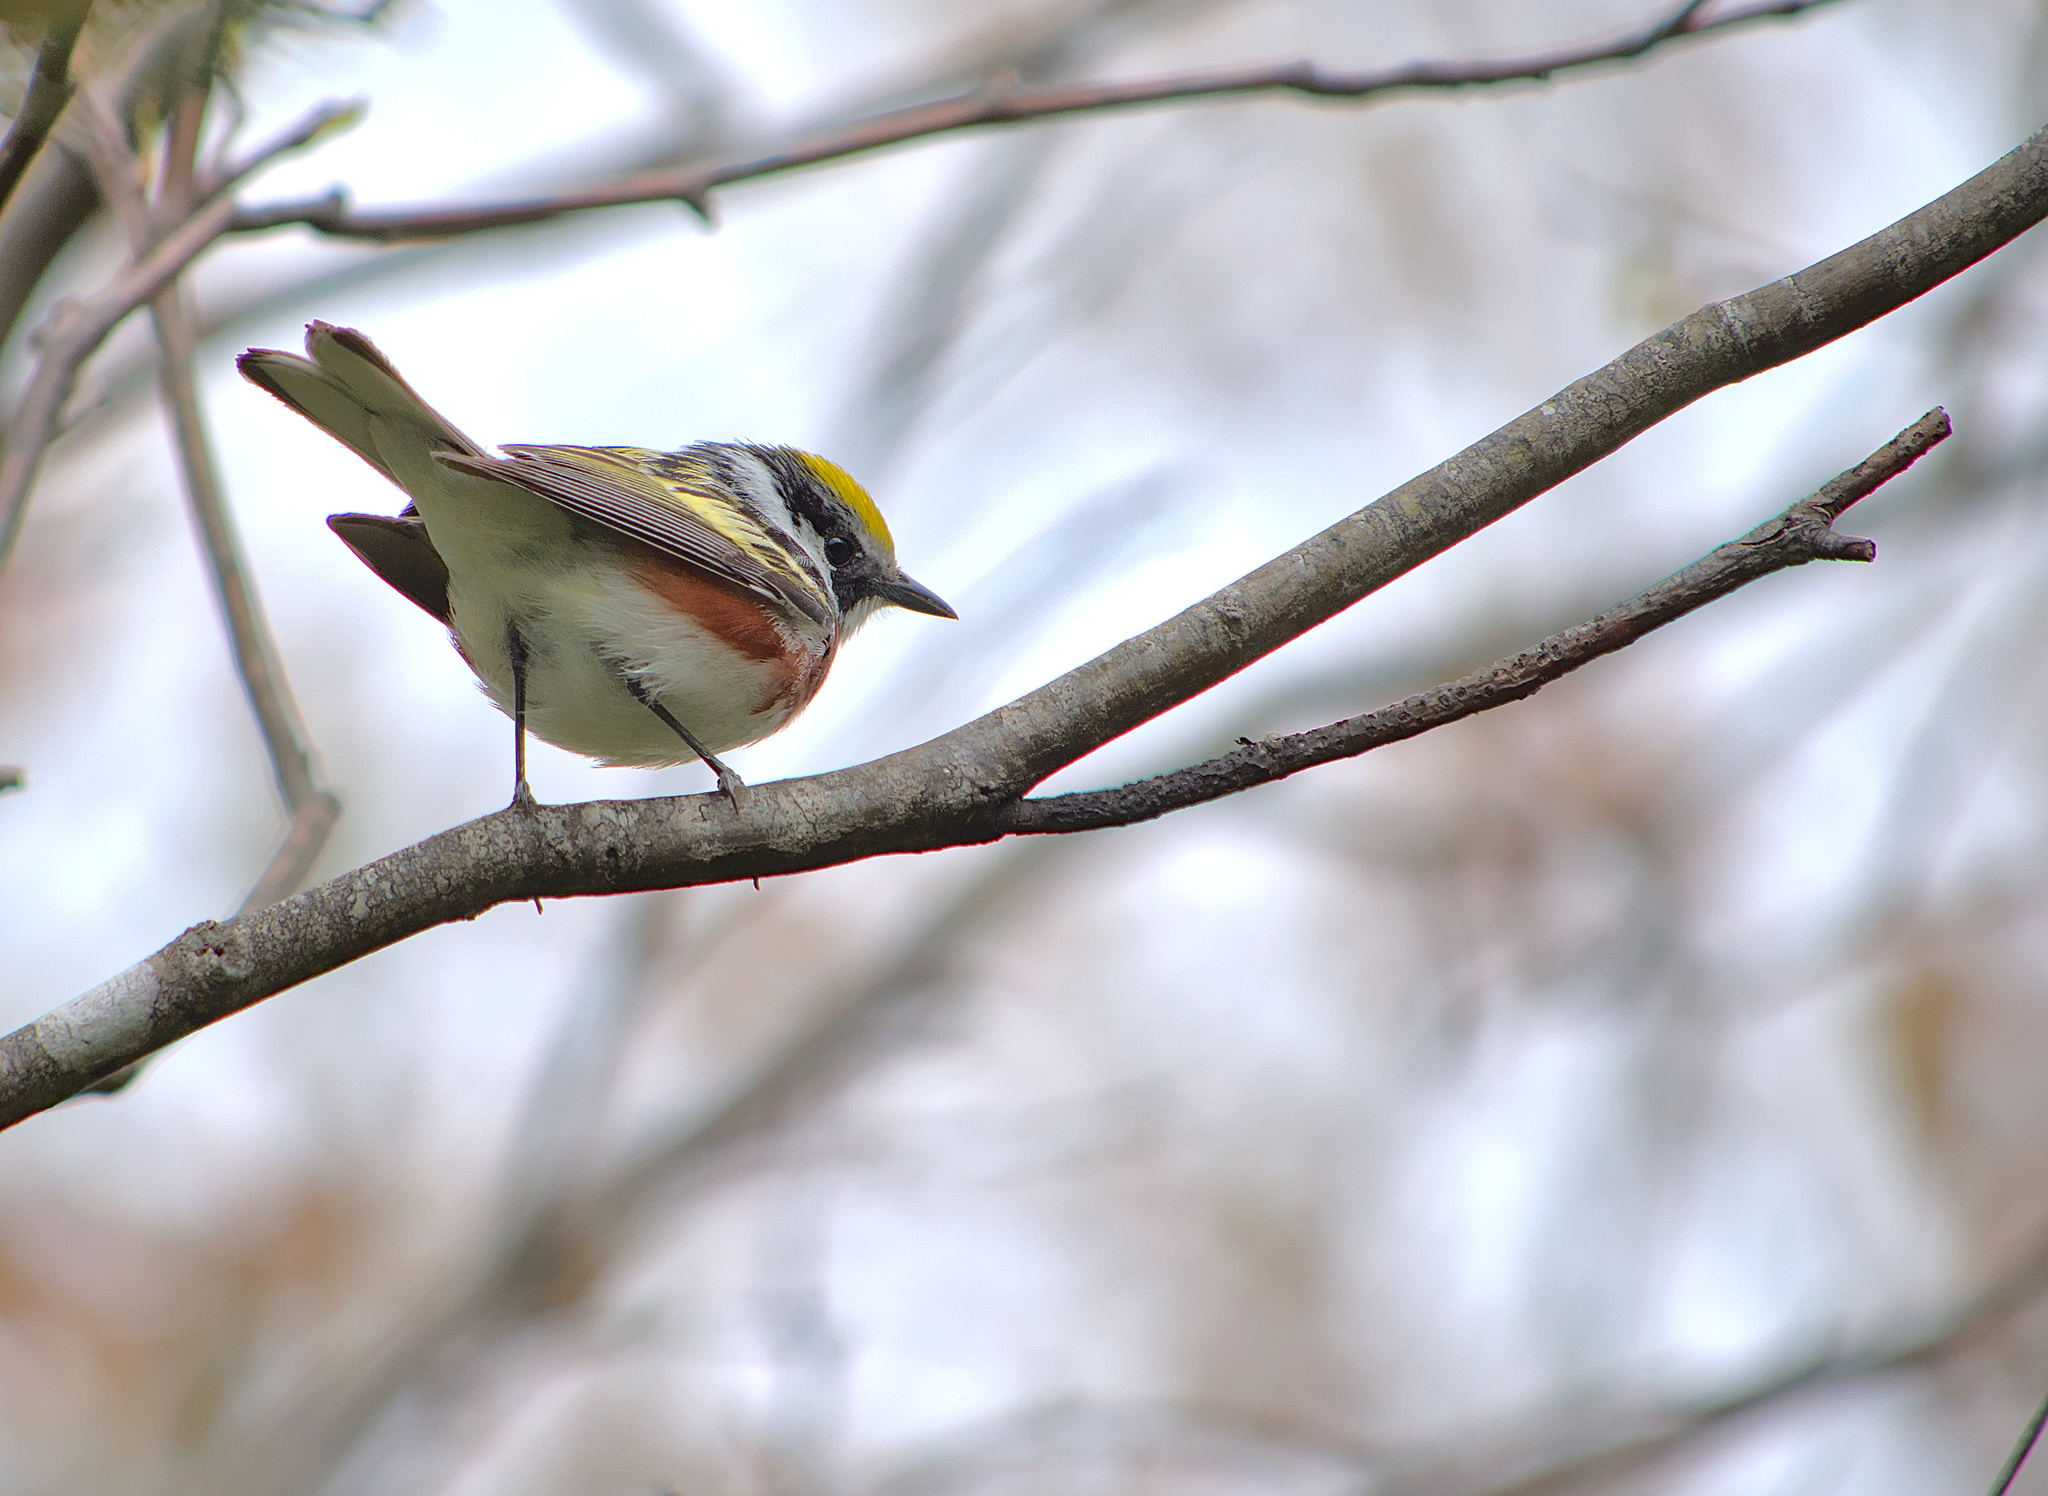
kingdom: Animalia
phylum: Chordata
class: Aves
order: Passeriformes
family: Parulidae
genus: Setophaga
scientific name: Setophaga pensylvanica
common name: Chestnut-sided warbler
